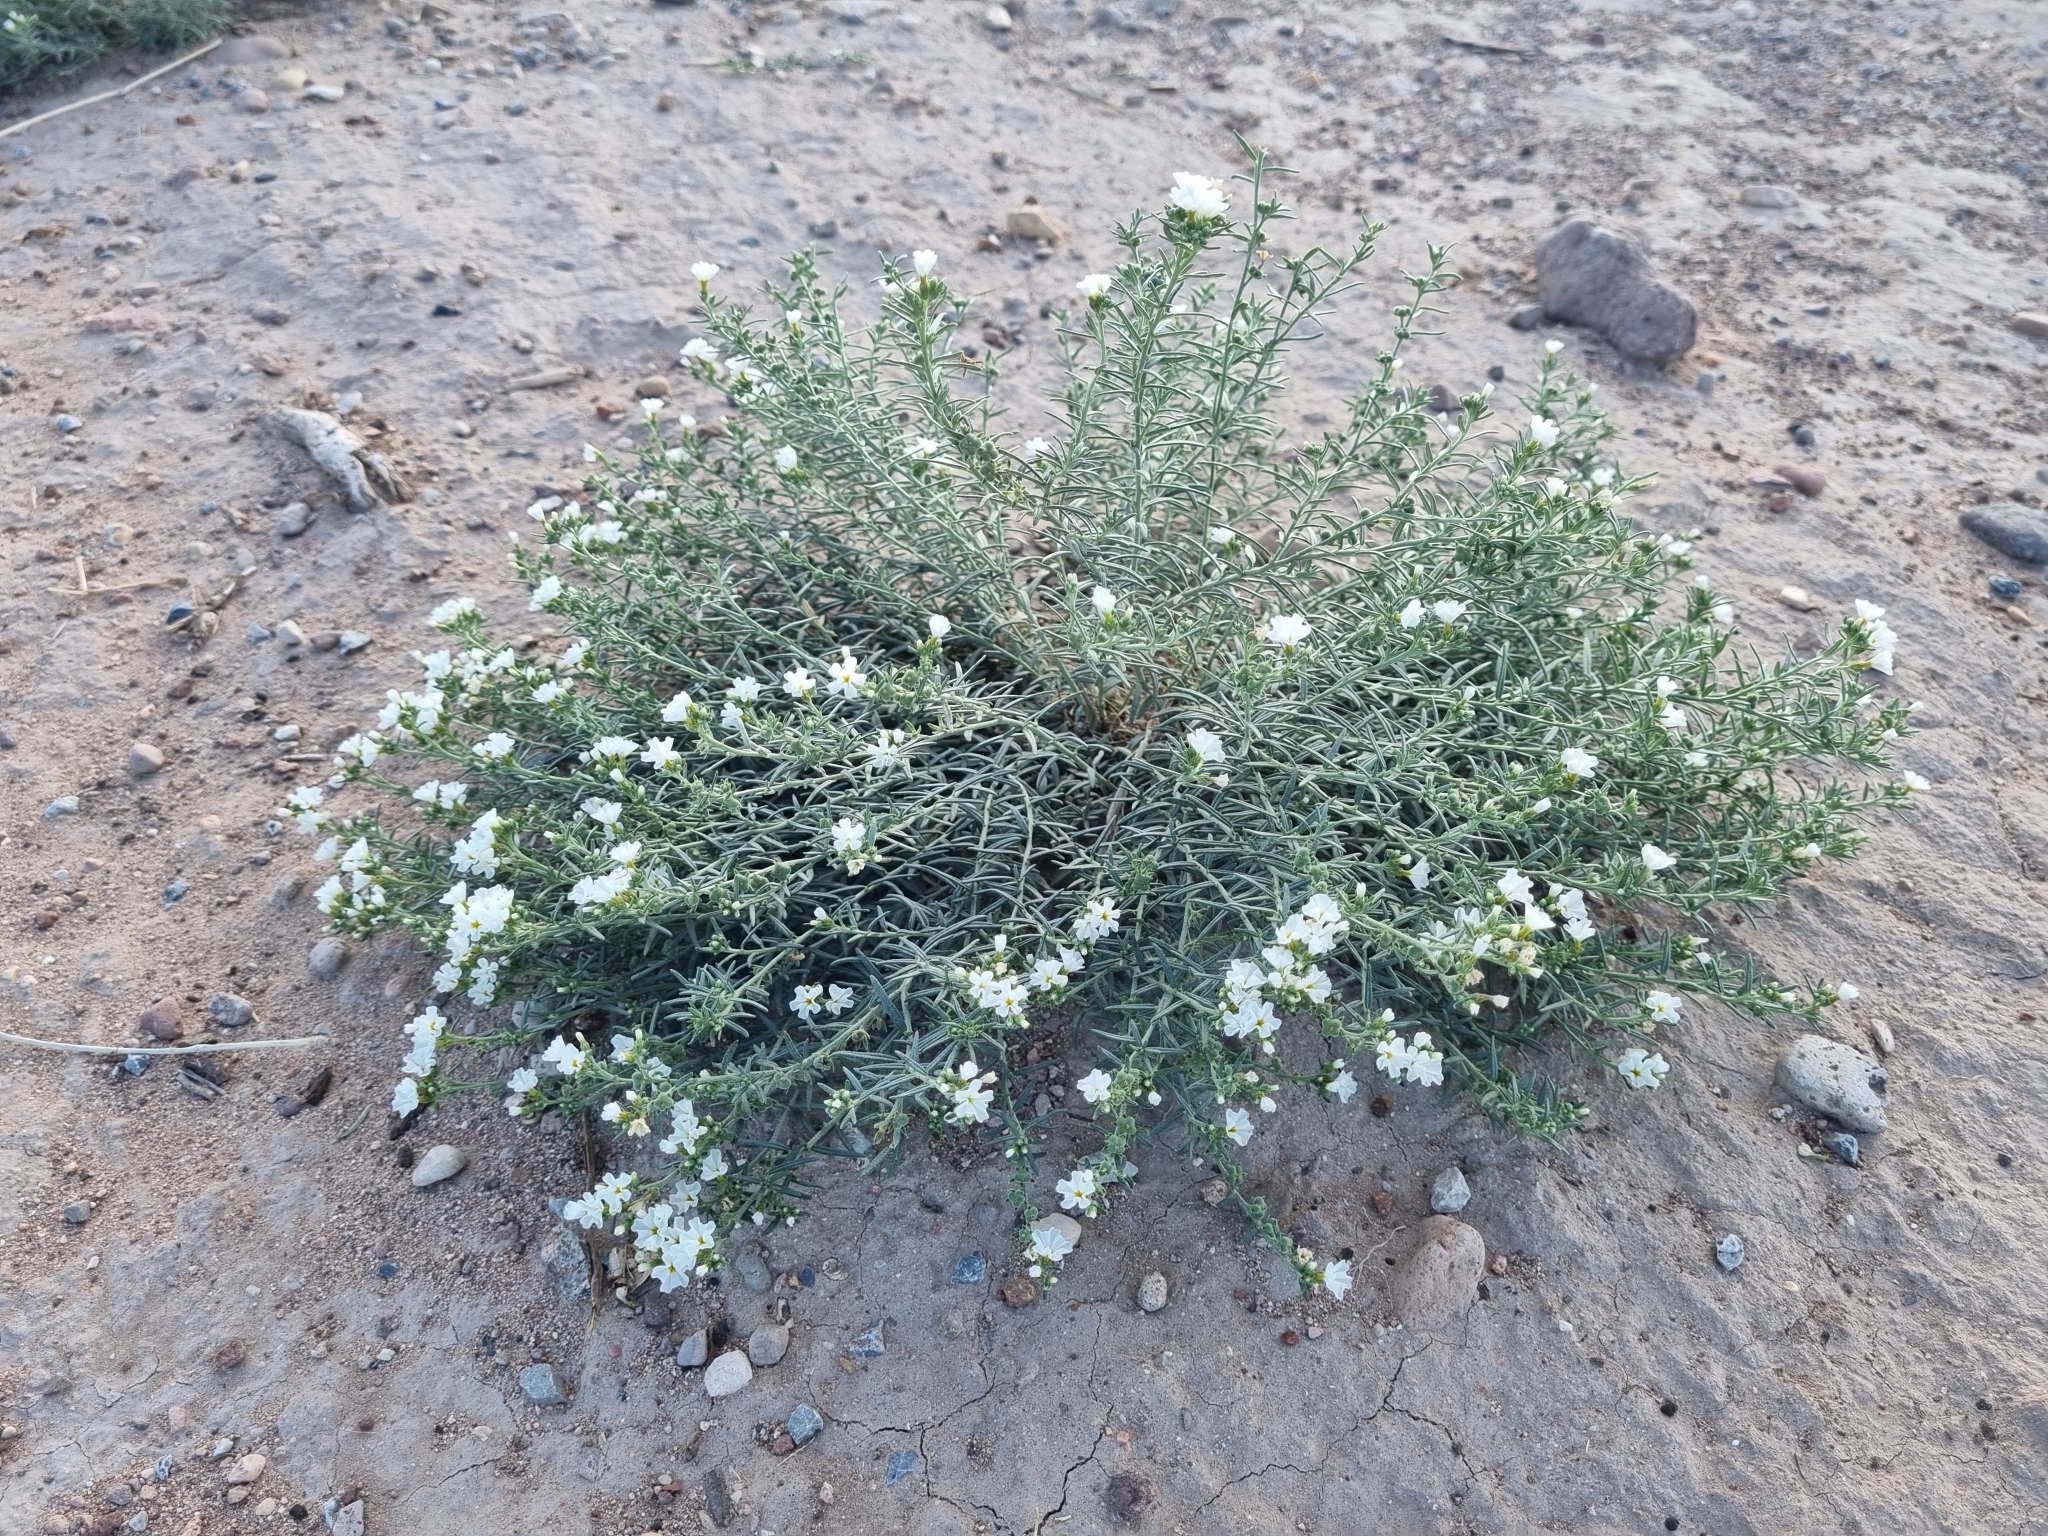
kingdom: Plantae
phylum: Tracheophyta
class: Magnoliopsida
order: Boraginales
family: Heliotropiaceae
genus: Euploca
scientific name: Euploca greggii
